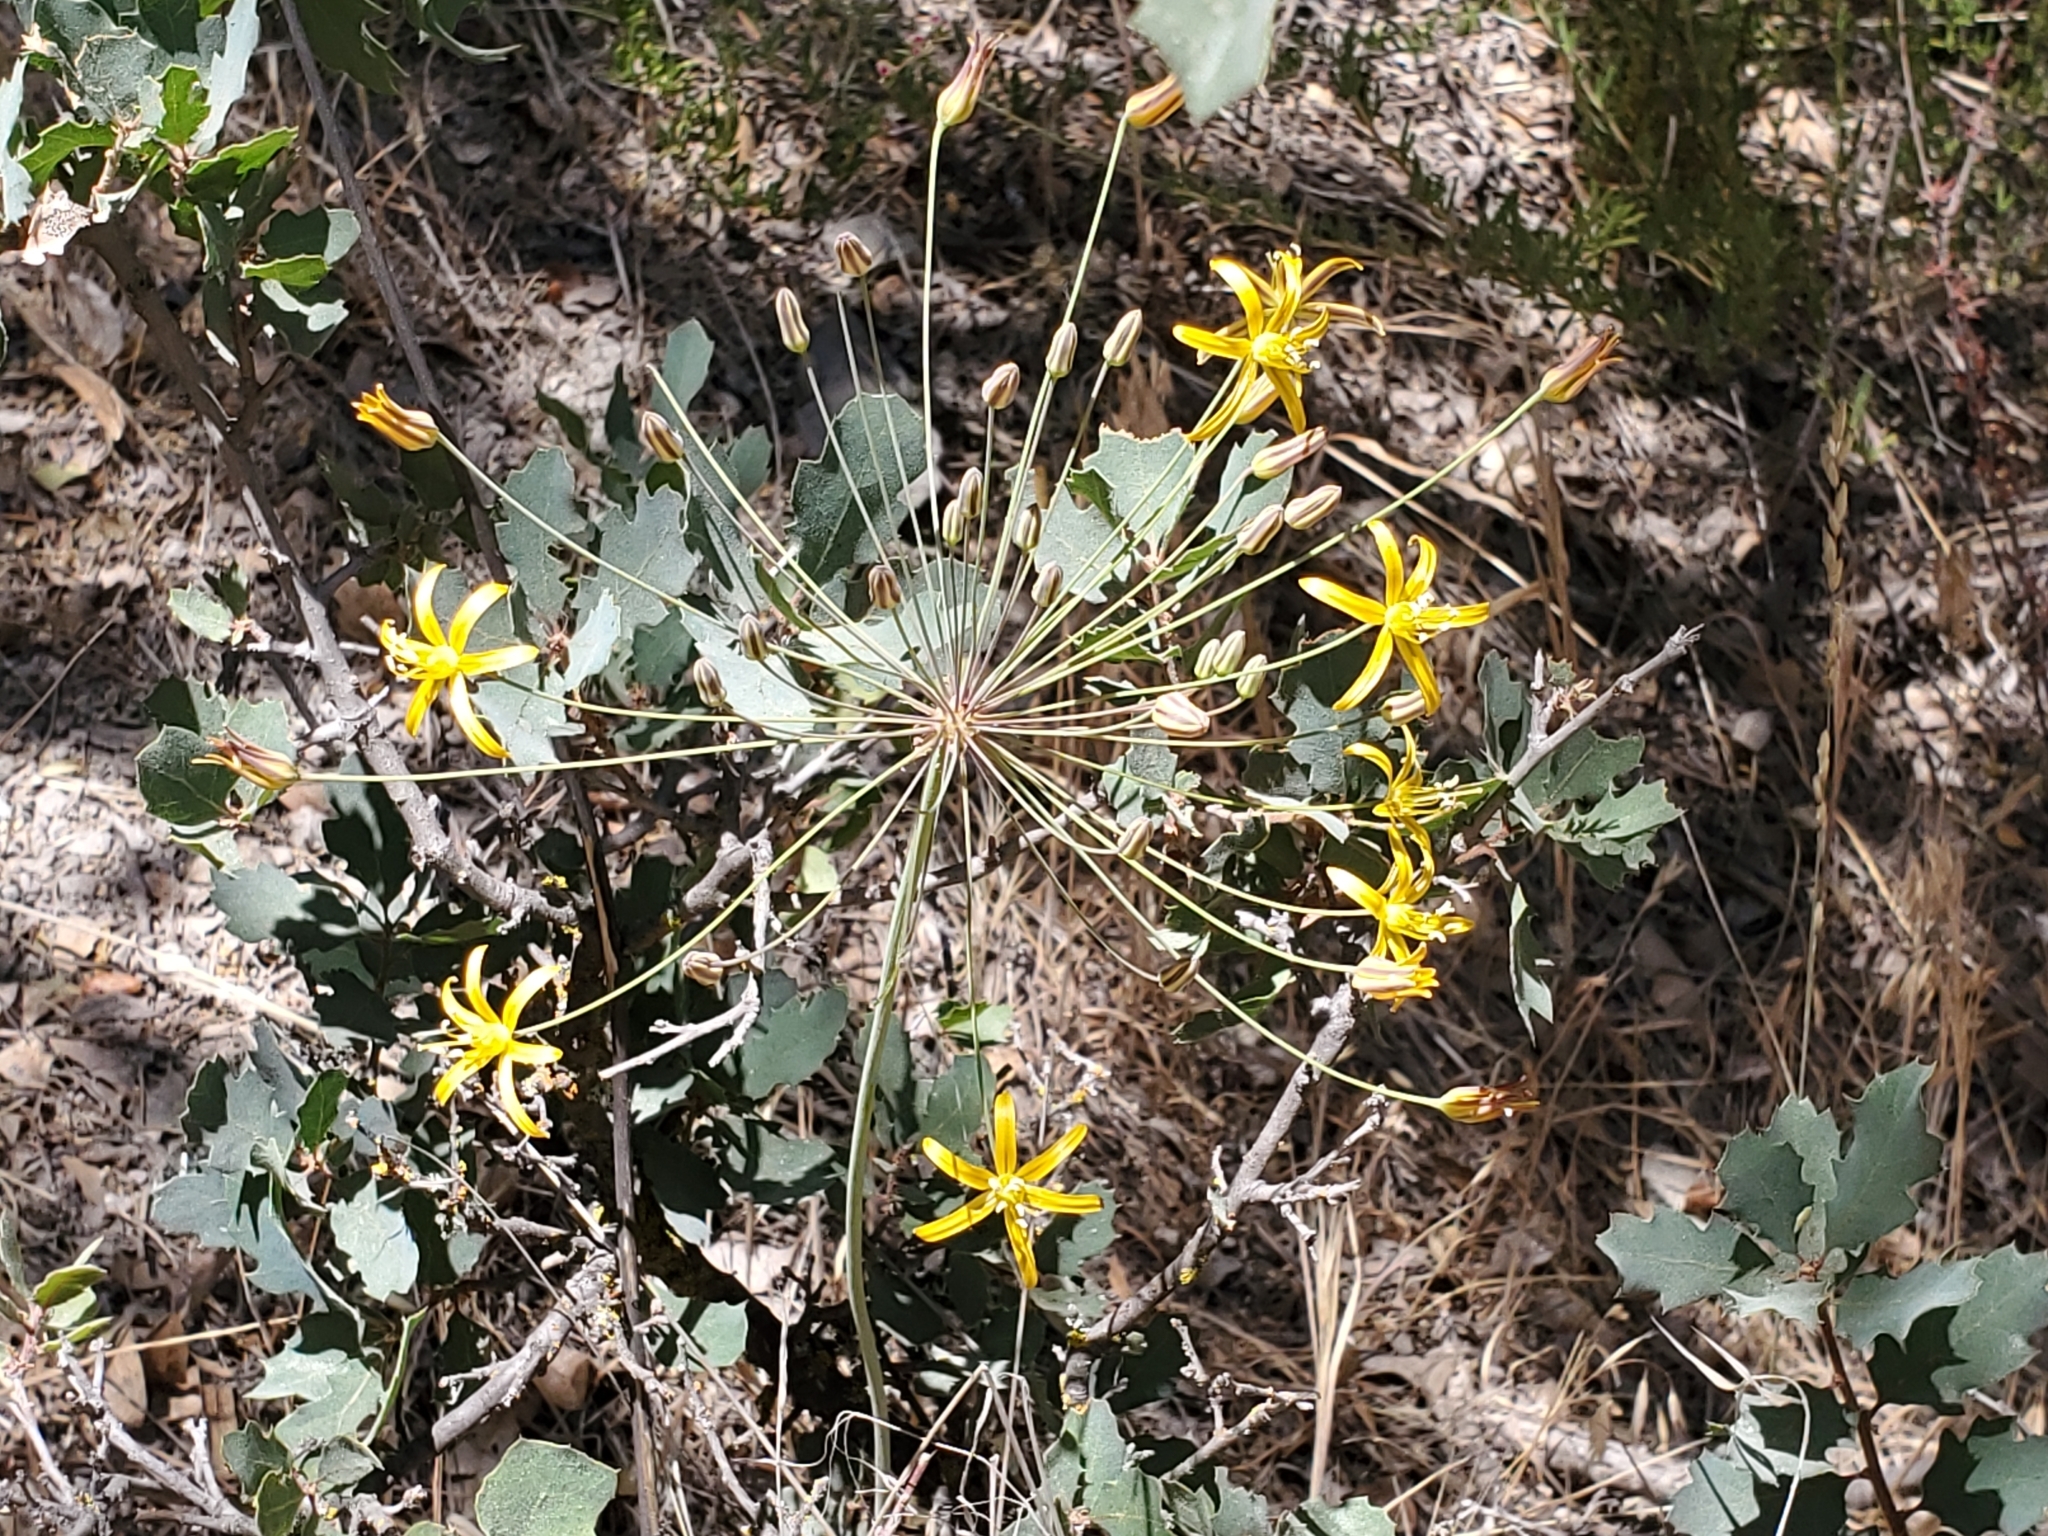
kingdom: Plantae
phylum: Tracheophyta
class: Liliopsida
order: Asparagales
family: Asparagaceae
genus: Bloomeria
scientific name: Bloomeria crocea
